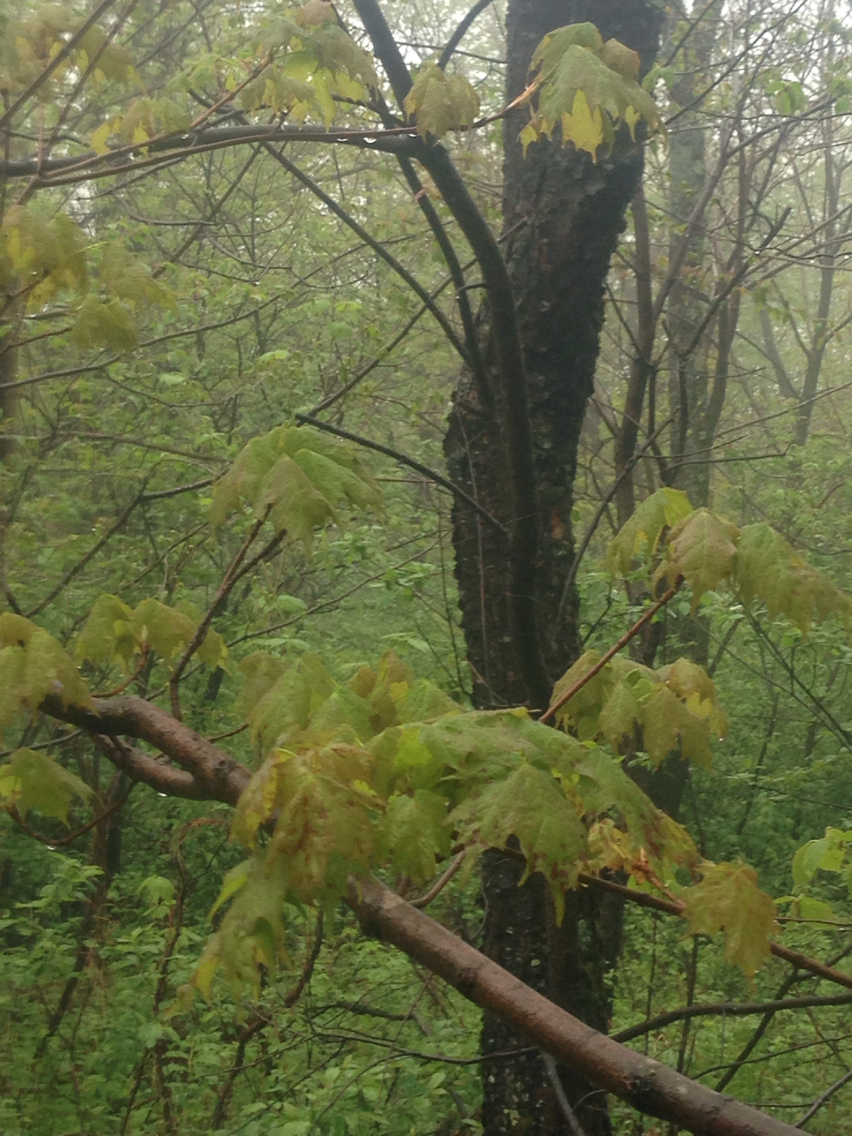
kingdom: Plantae
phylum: Tracheophyta
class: Magnoliopsida
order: Rosales
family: Rosaceae
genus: Prunus
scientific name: Prunus serotina
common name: Black cherry
